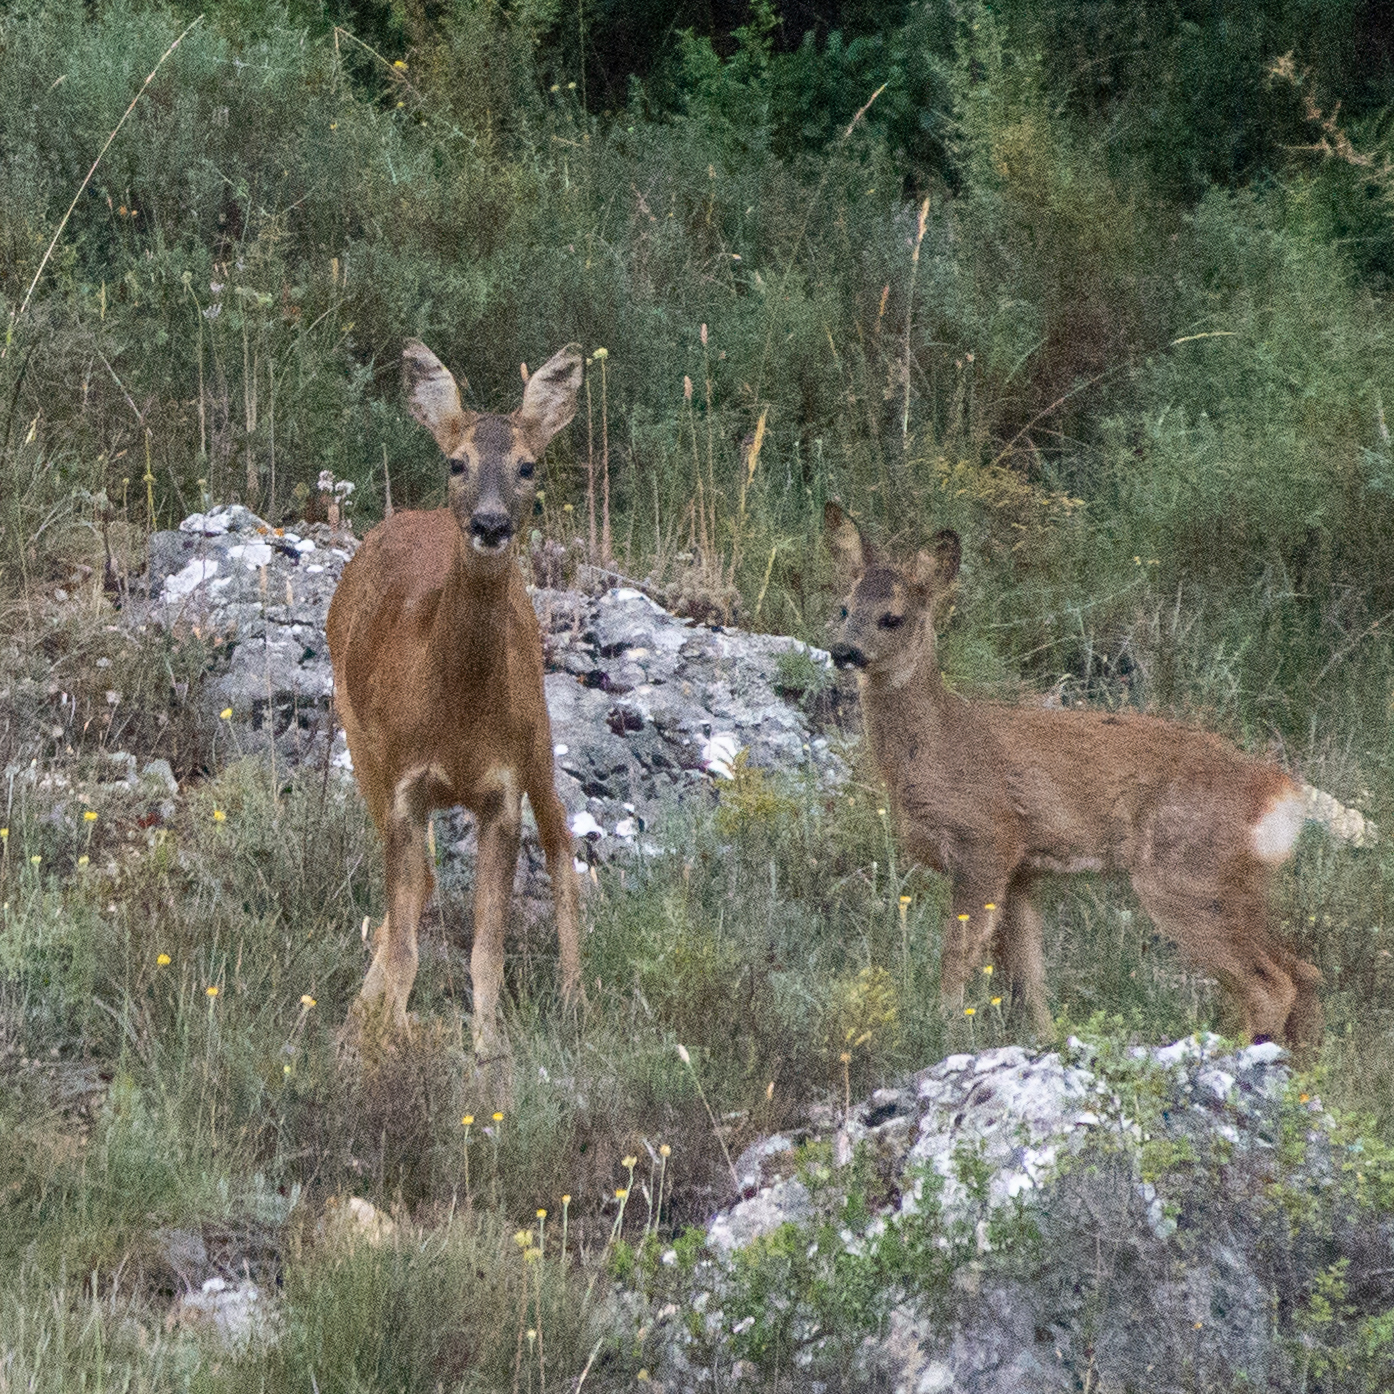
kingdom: Animalia
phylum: Chordata
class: Mammalia
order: Artiodactyla
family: Cervidae
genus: Capreolus
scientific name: Capreolus capreolus
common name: Western roe deer
